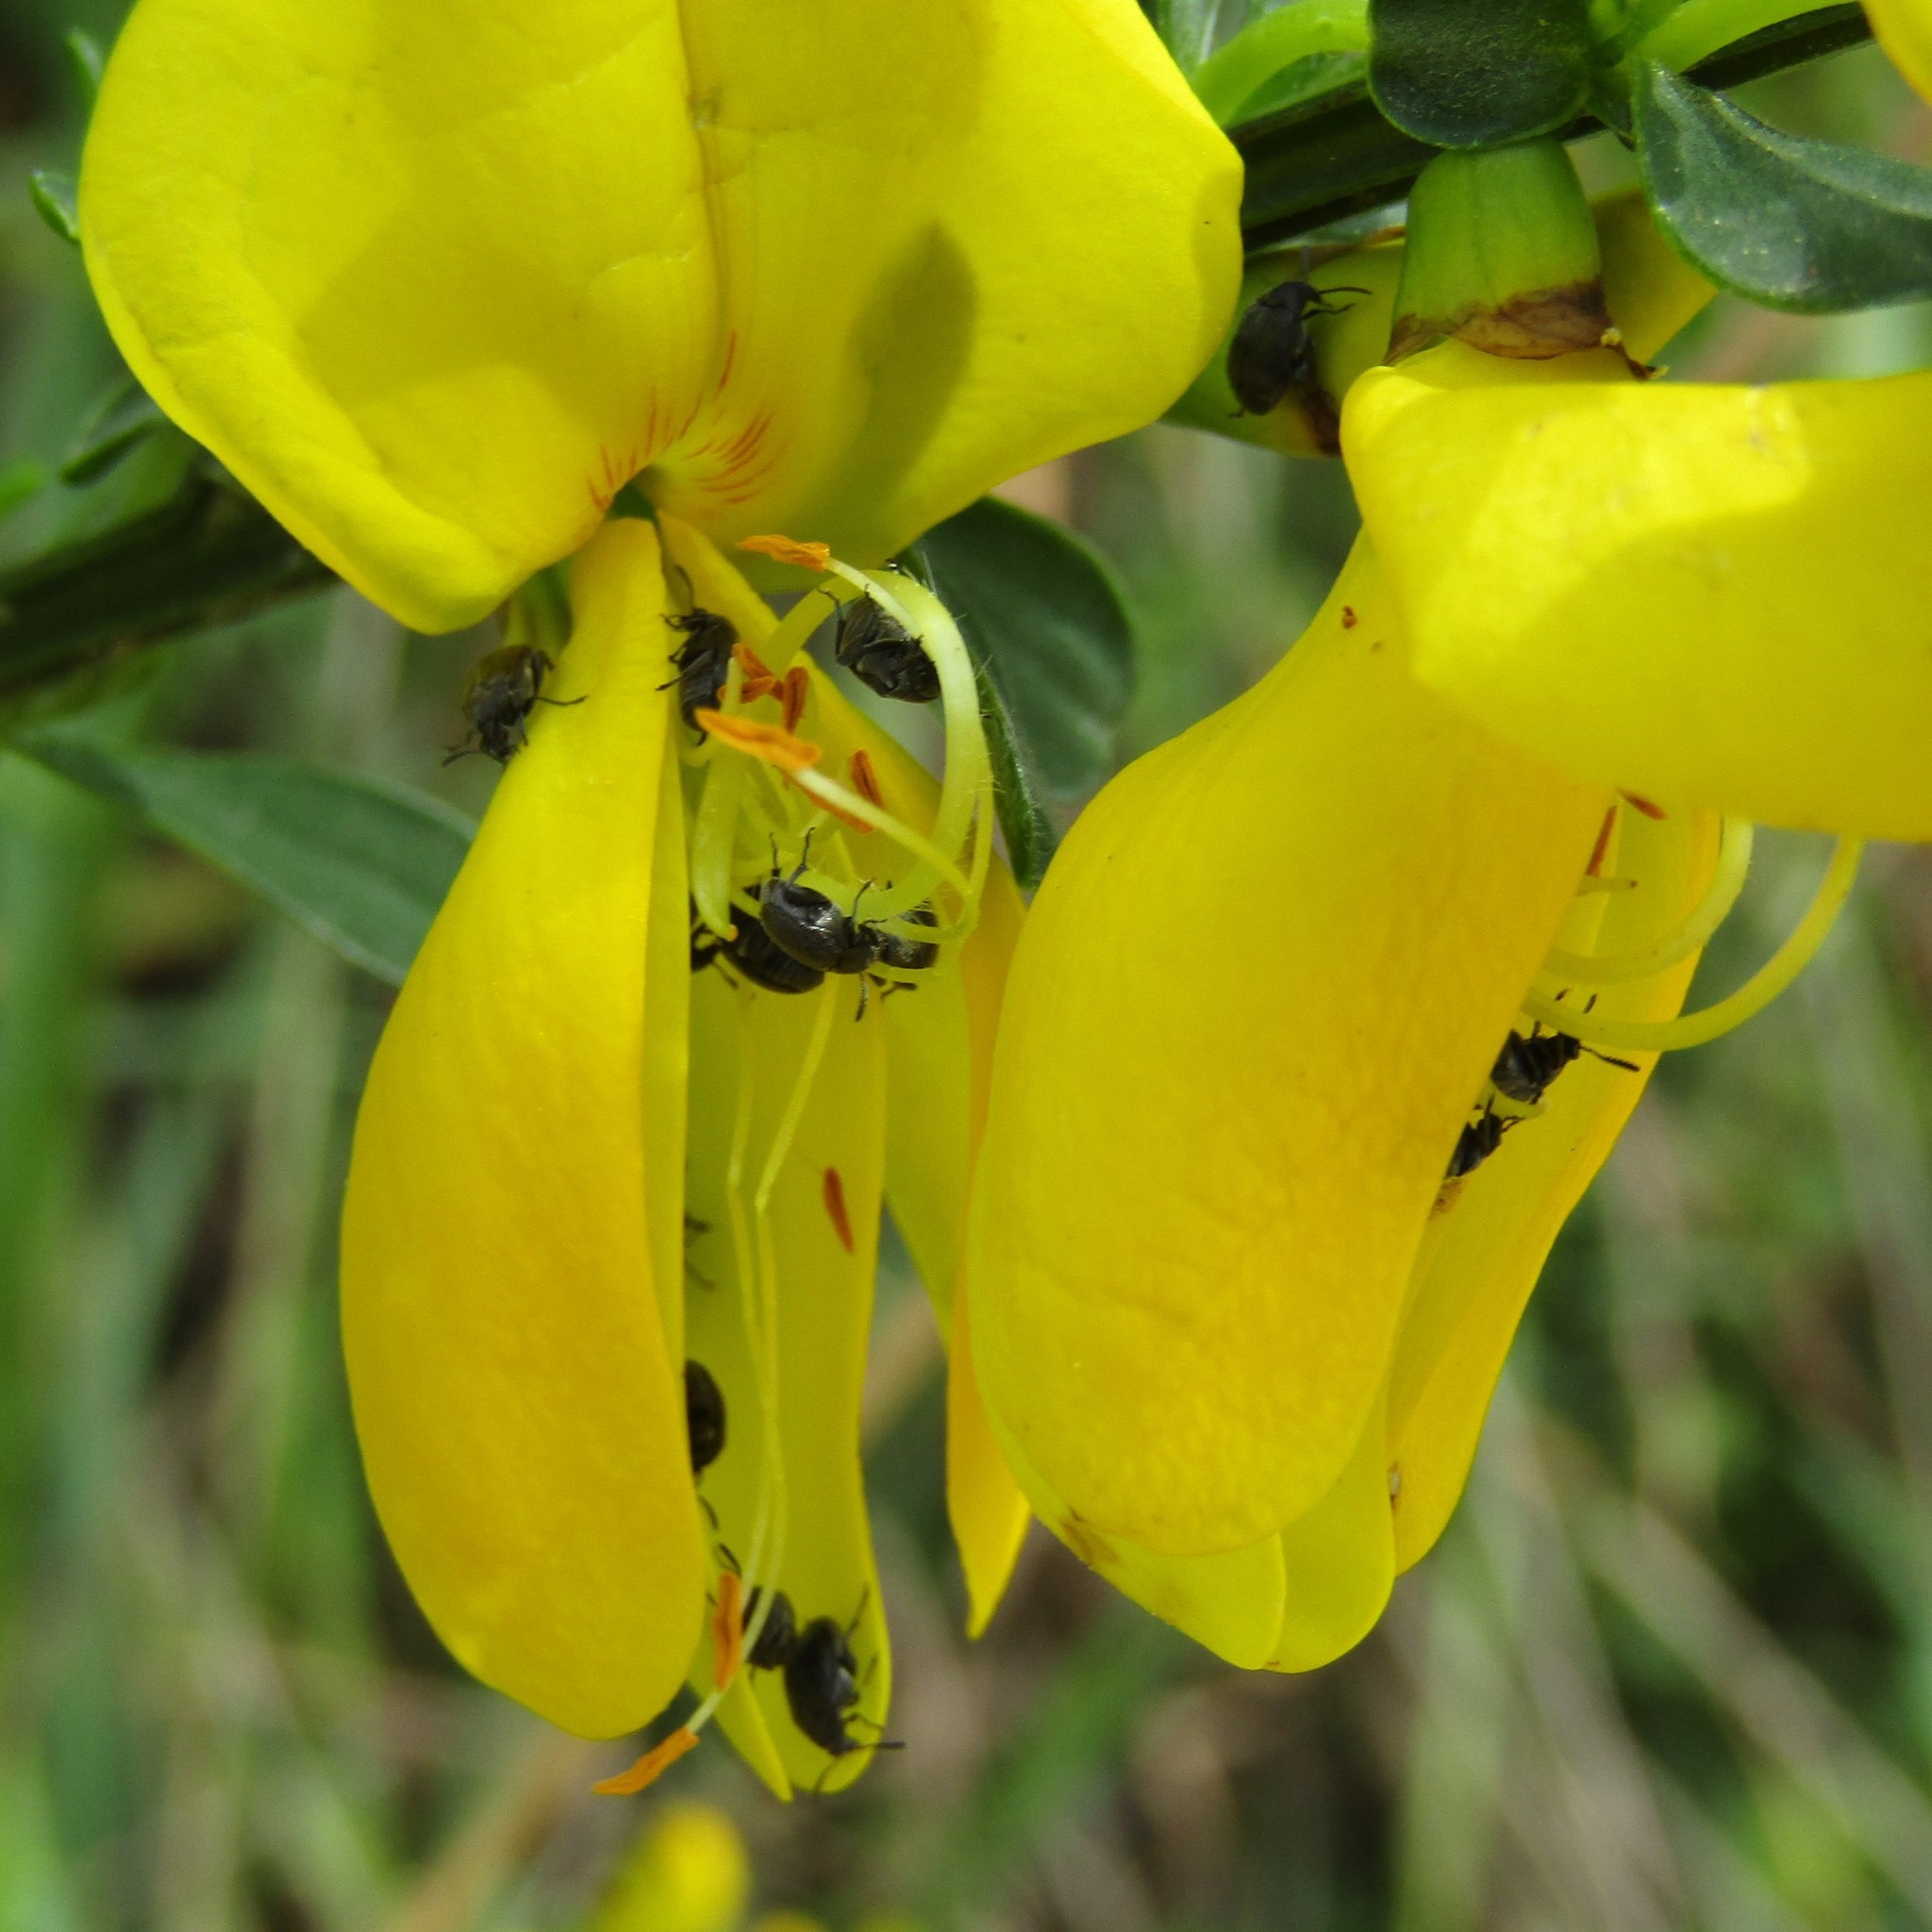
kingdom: Animalia
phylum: Arthropoda
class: Insecta
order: Coleoptera
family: Chrysomelidae
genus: Bruchidius
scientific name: Bruchidius villosus
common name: Scotch broom bruchid
